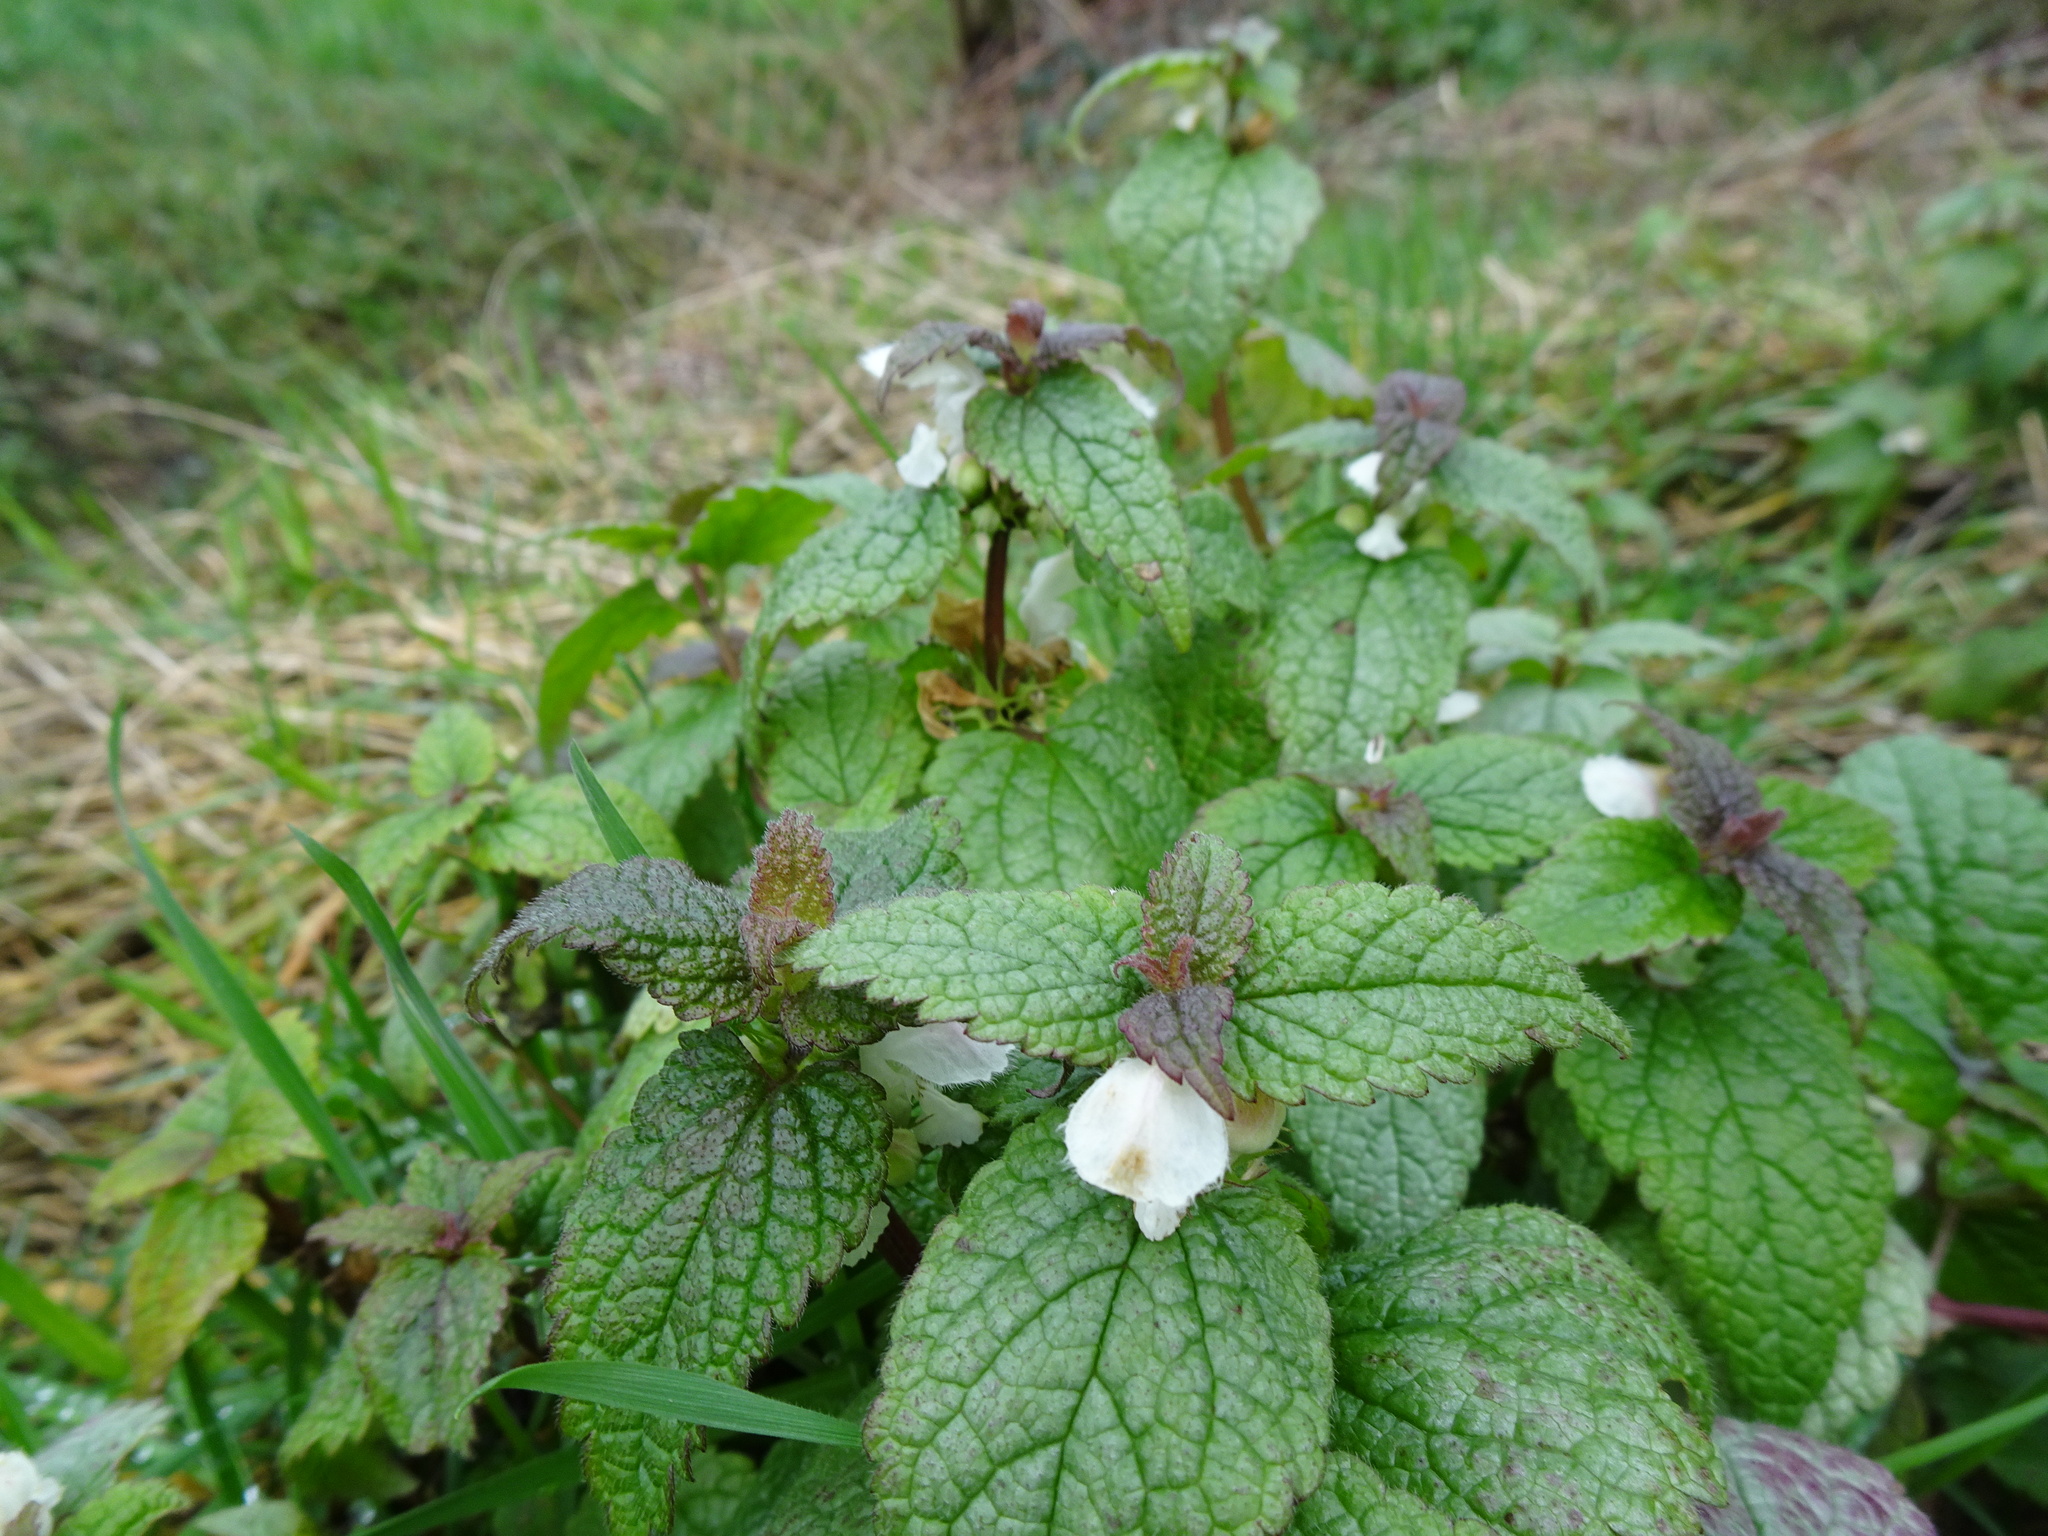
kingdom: Plantae
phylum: Tracheophyta
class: Magnoliopsida
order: Lamiales
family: Lamiaceae
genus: Lamium
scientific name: Lamium album
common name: White dead-nettle
